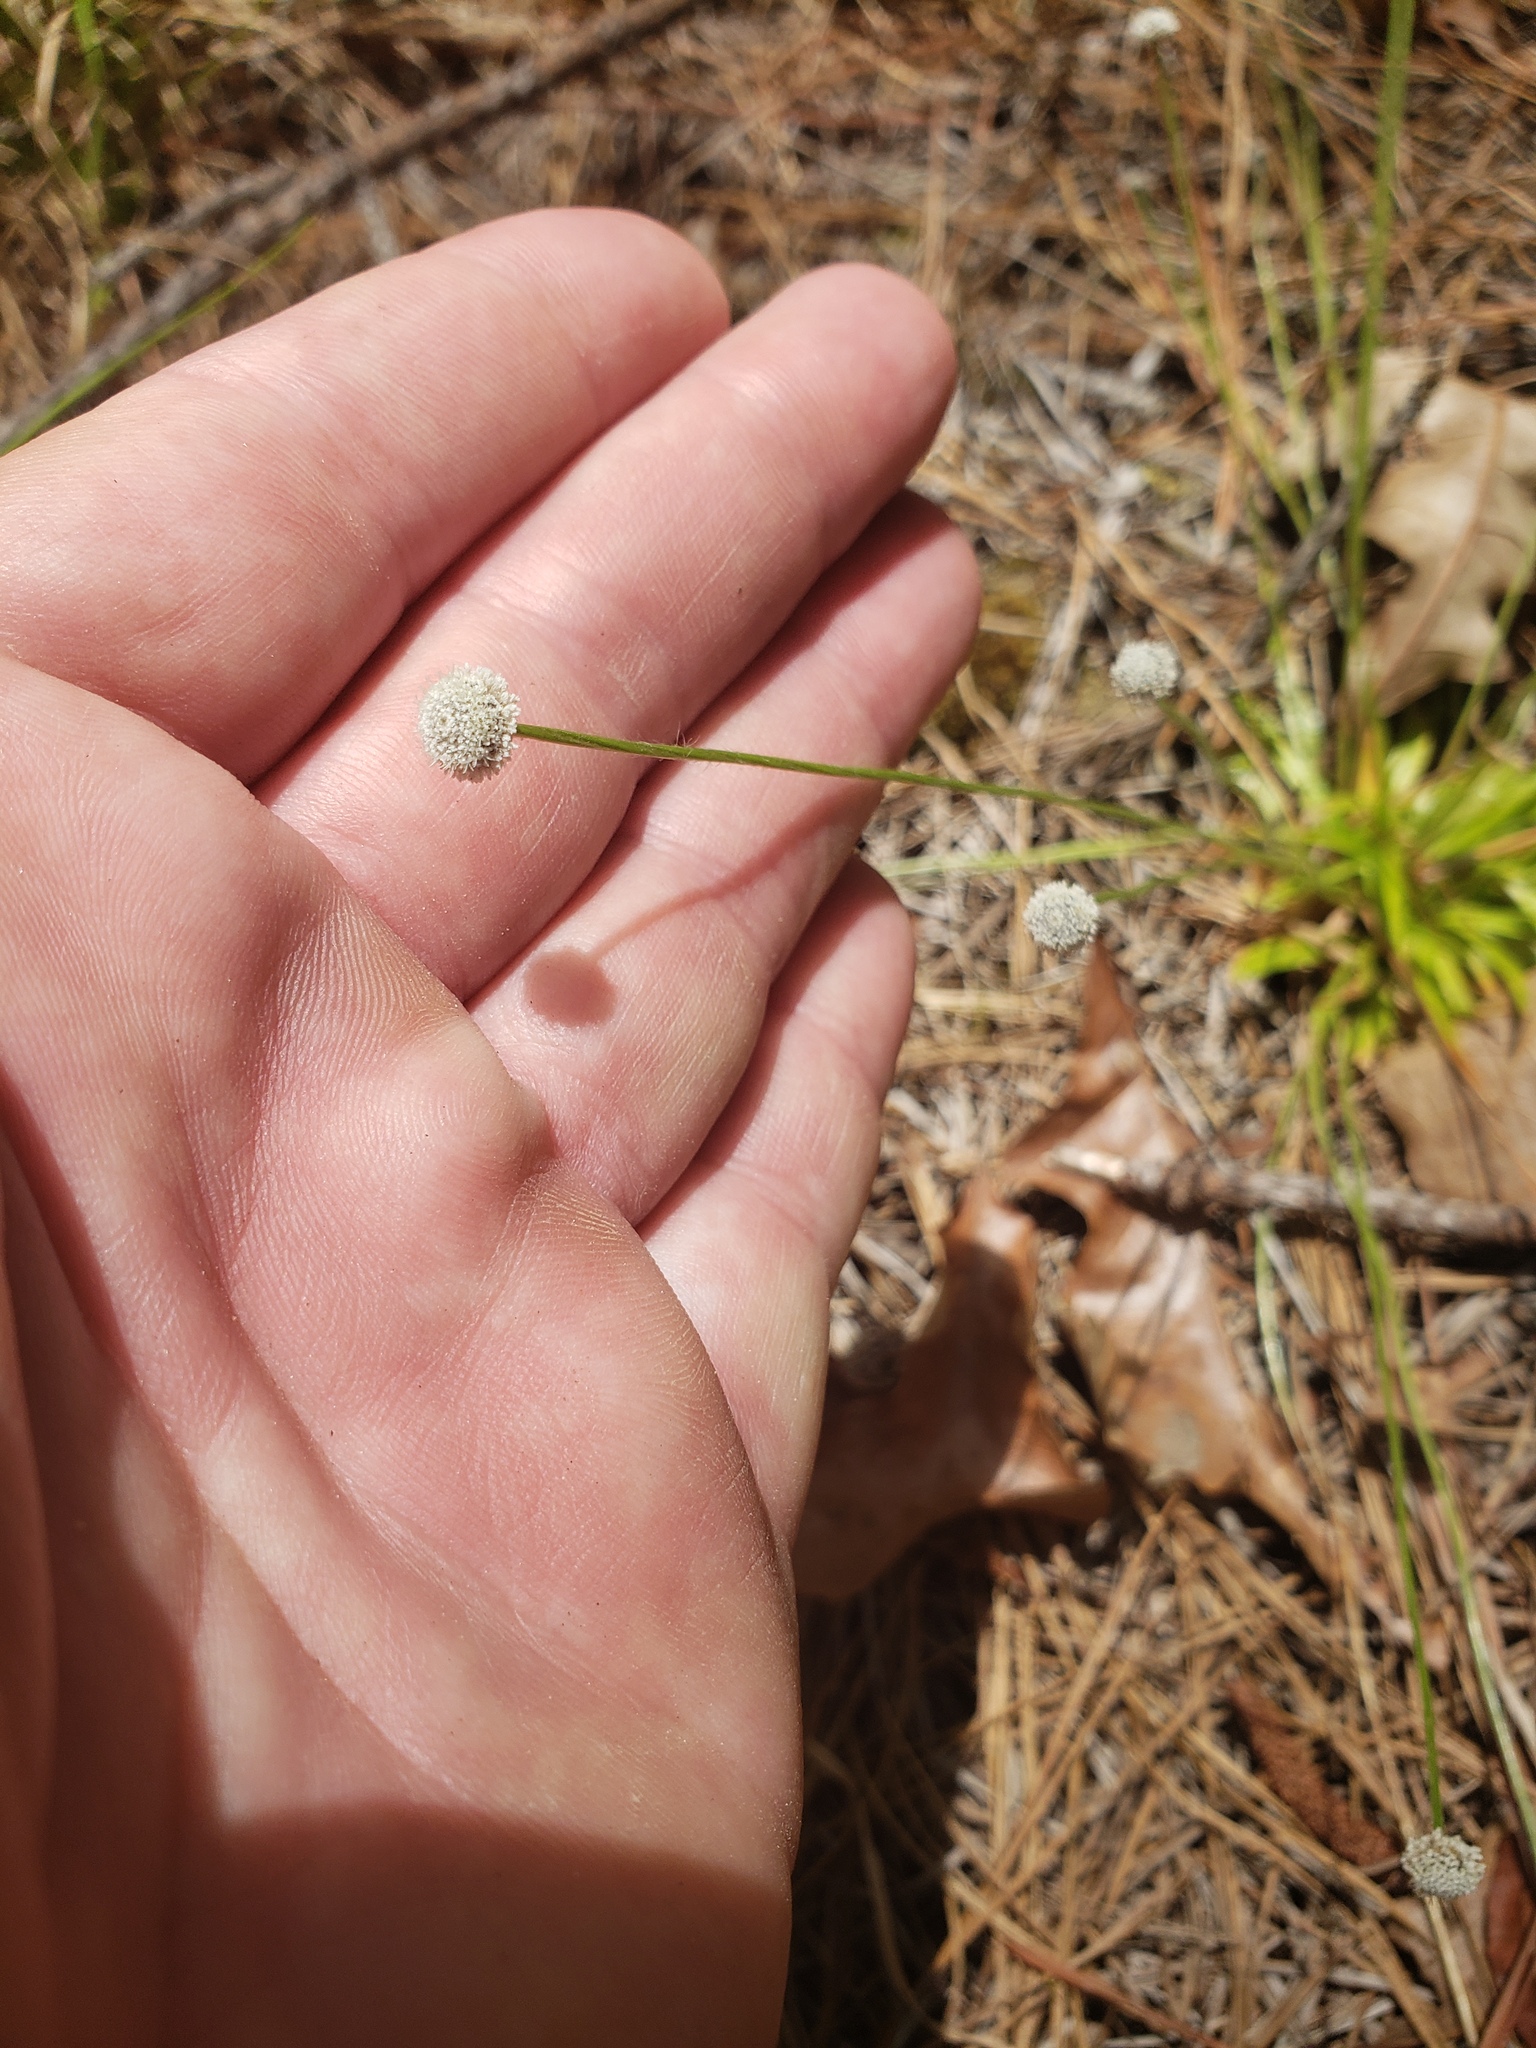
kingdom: Plantae
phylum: Tracheophyta
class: Liliopsida
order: Poales
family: Eriocaulaceae
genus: Paepalanthus
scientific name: Paepalanthus anceps
